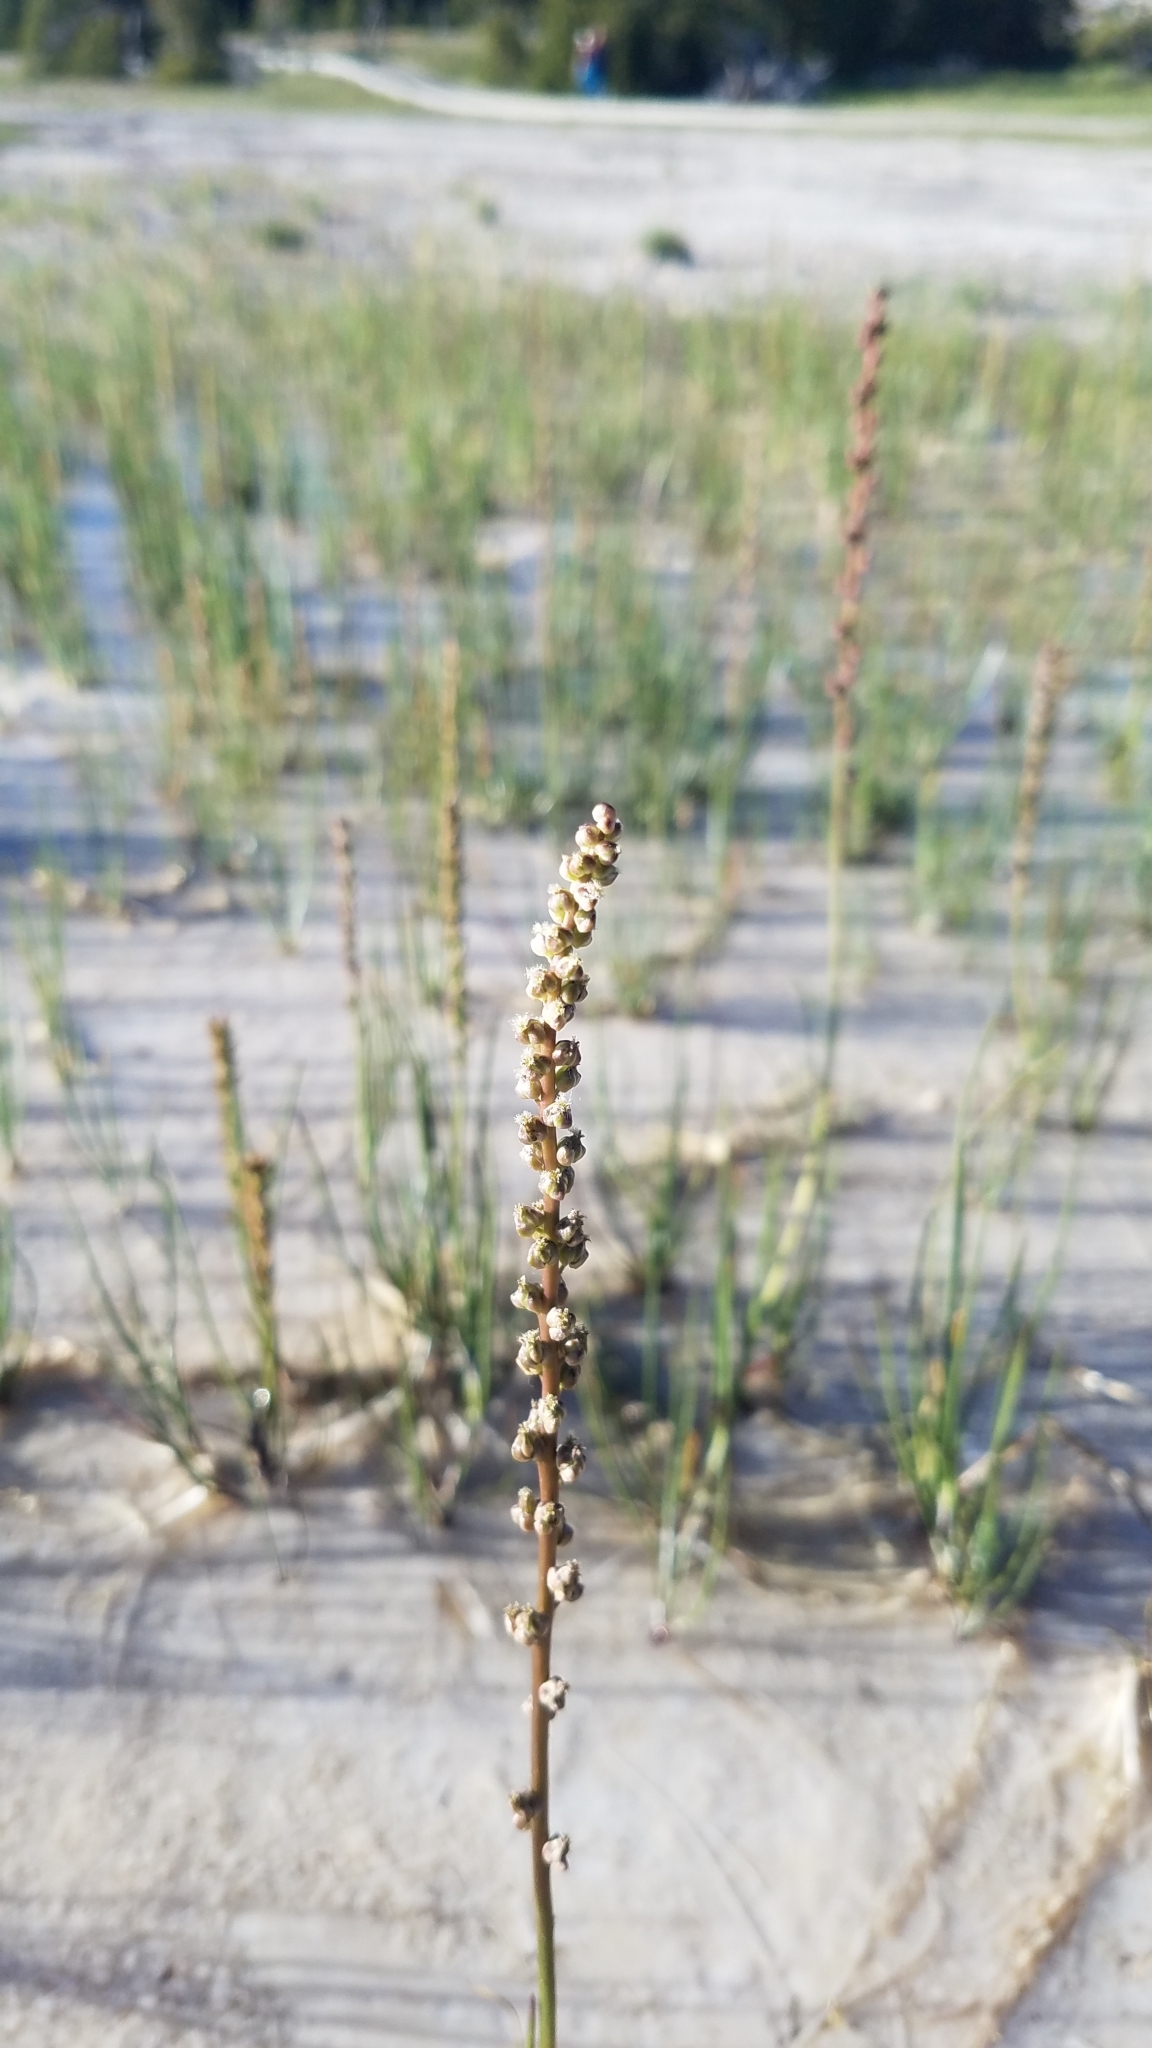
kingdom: Plantae
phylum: Tracheophyta
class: Liliopsida
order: Alismatales
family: Juncaginaceae
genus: Triglochin
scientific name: Triglochin maritima
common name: Sea arrowgrass
